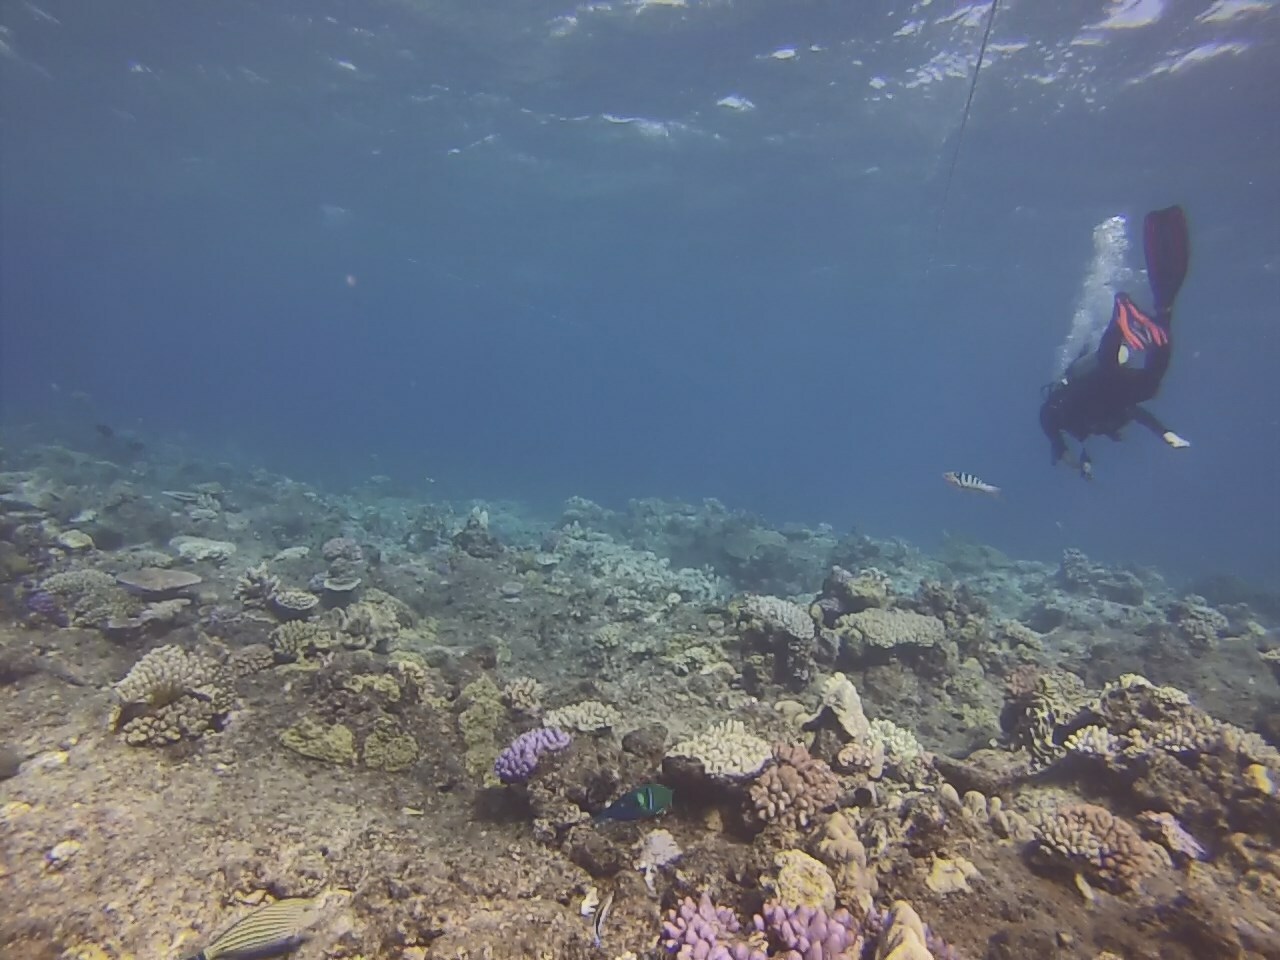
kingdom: Animalia
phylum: Chordata
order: Perciformes
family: Labridae
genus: Gomphosus
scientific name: Gomphosus varius
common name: Bird wrasse
